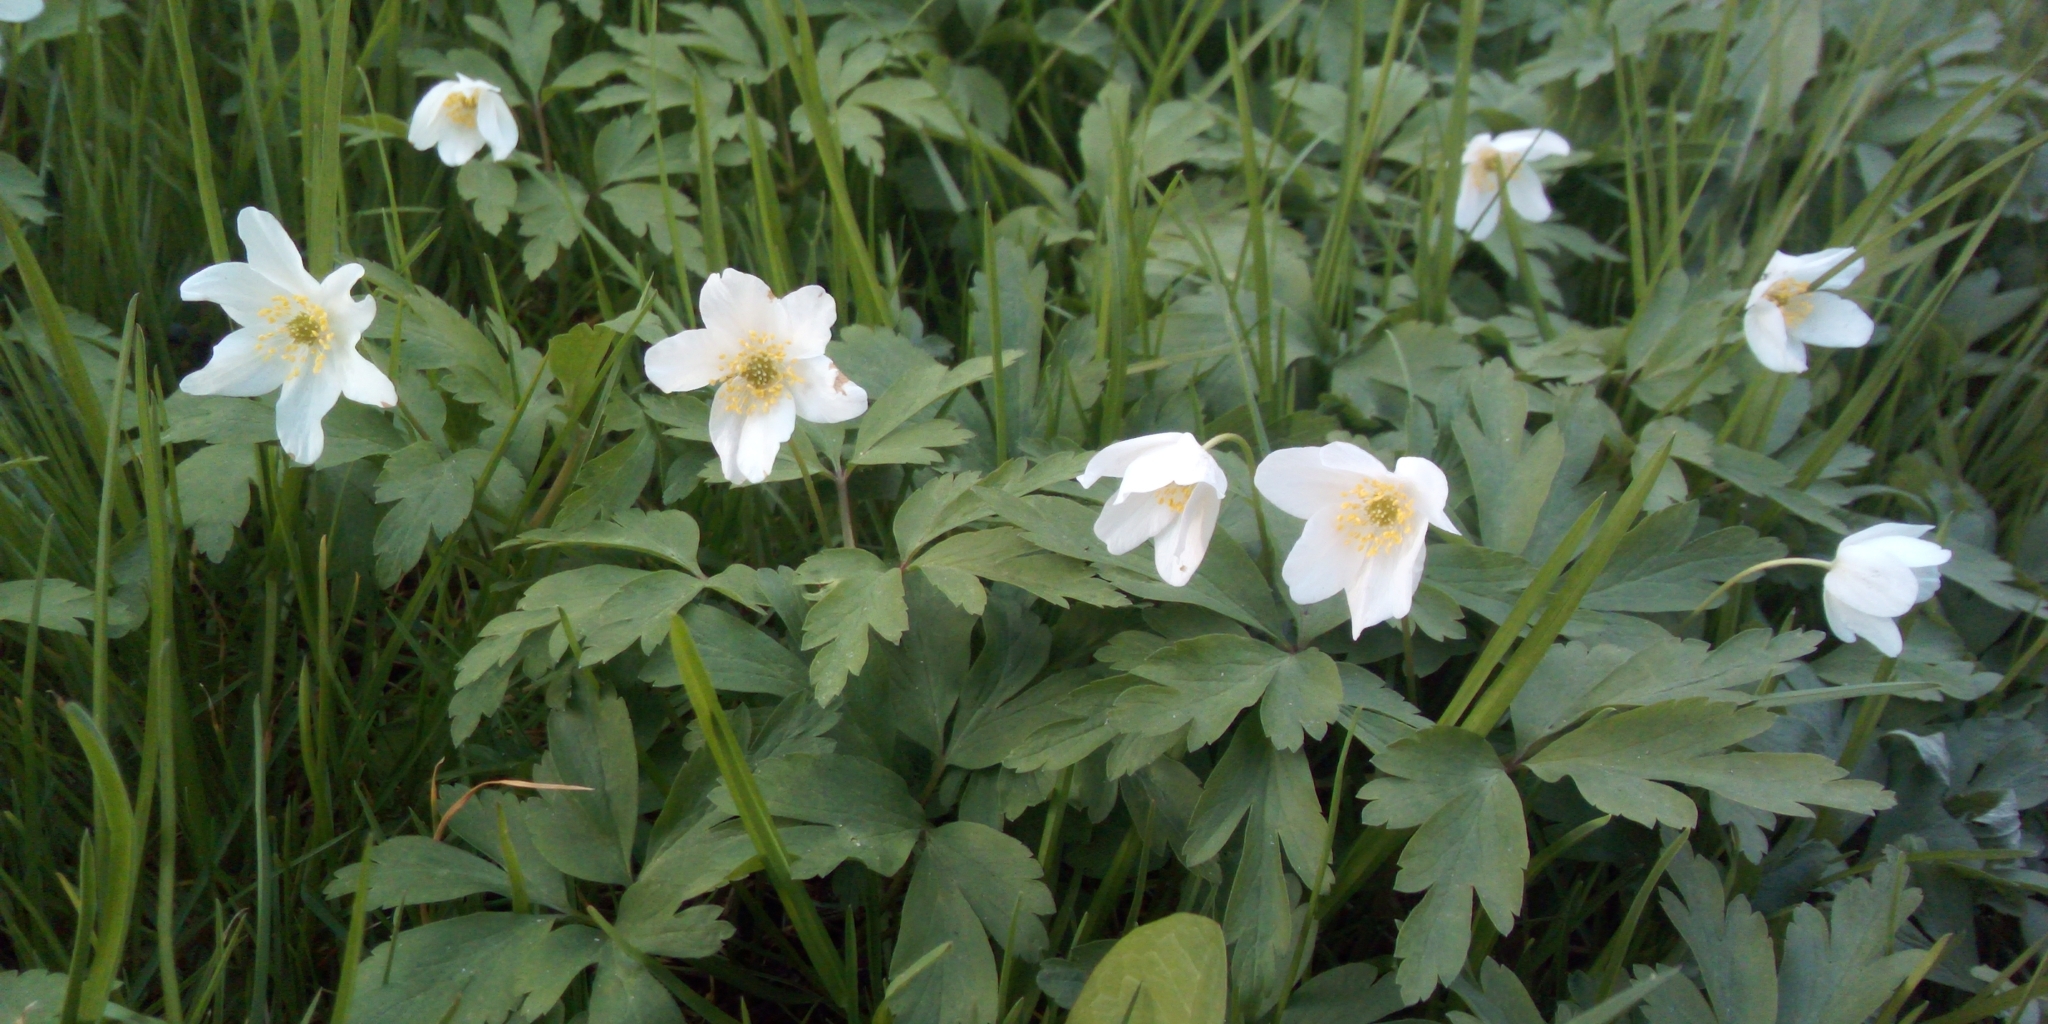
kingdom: Plantae
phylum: Tracheophyta
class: Magnoliopsida
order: Ranunculales
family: Ranunculaceae
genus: Anemone
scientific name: Anemone nemorosa
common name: Wood anemone
